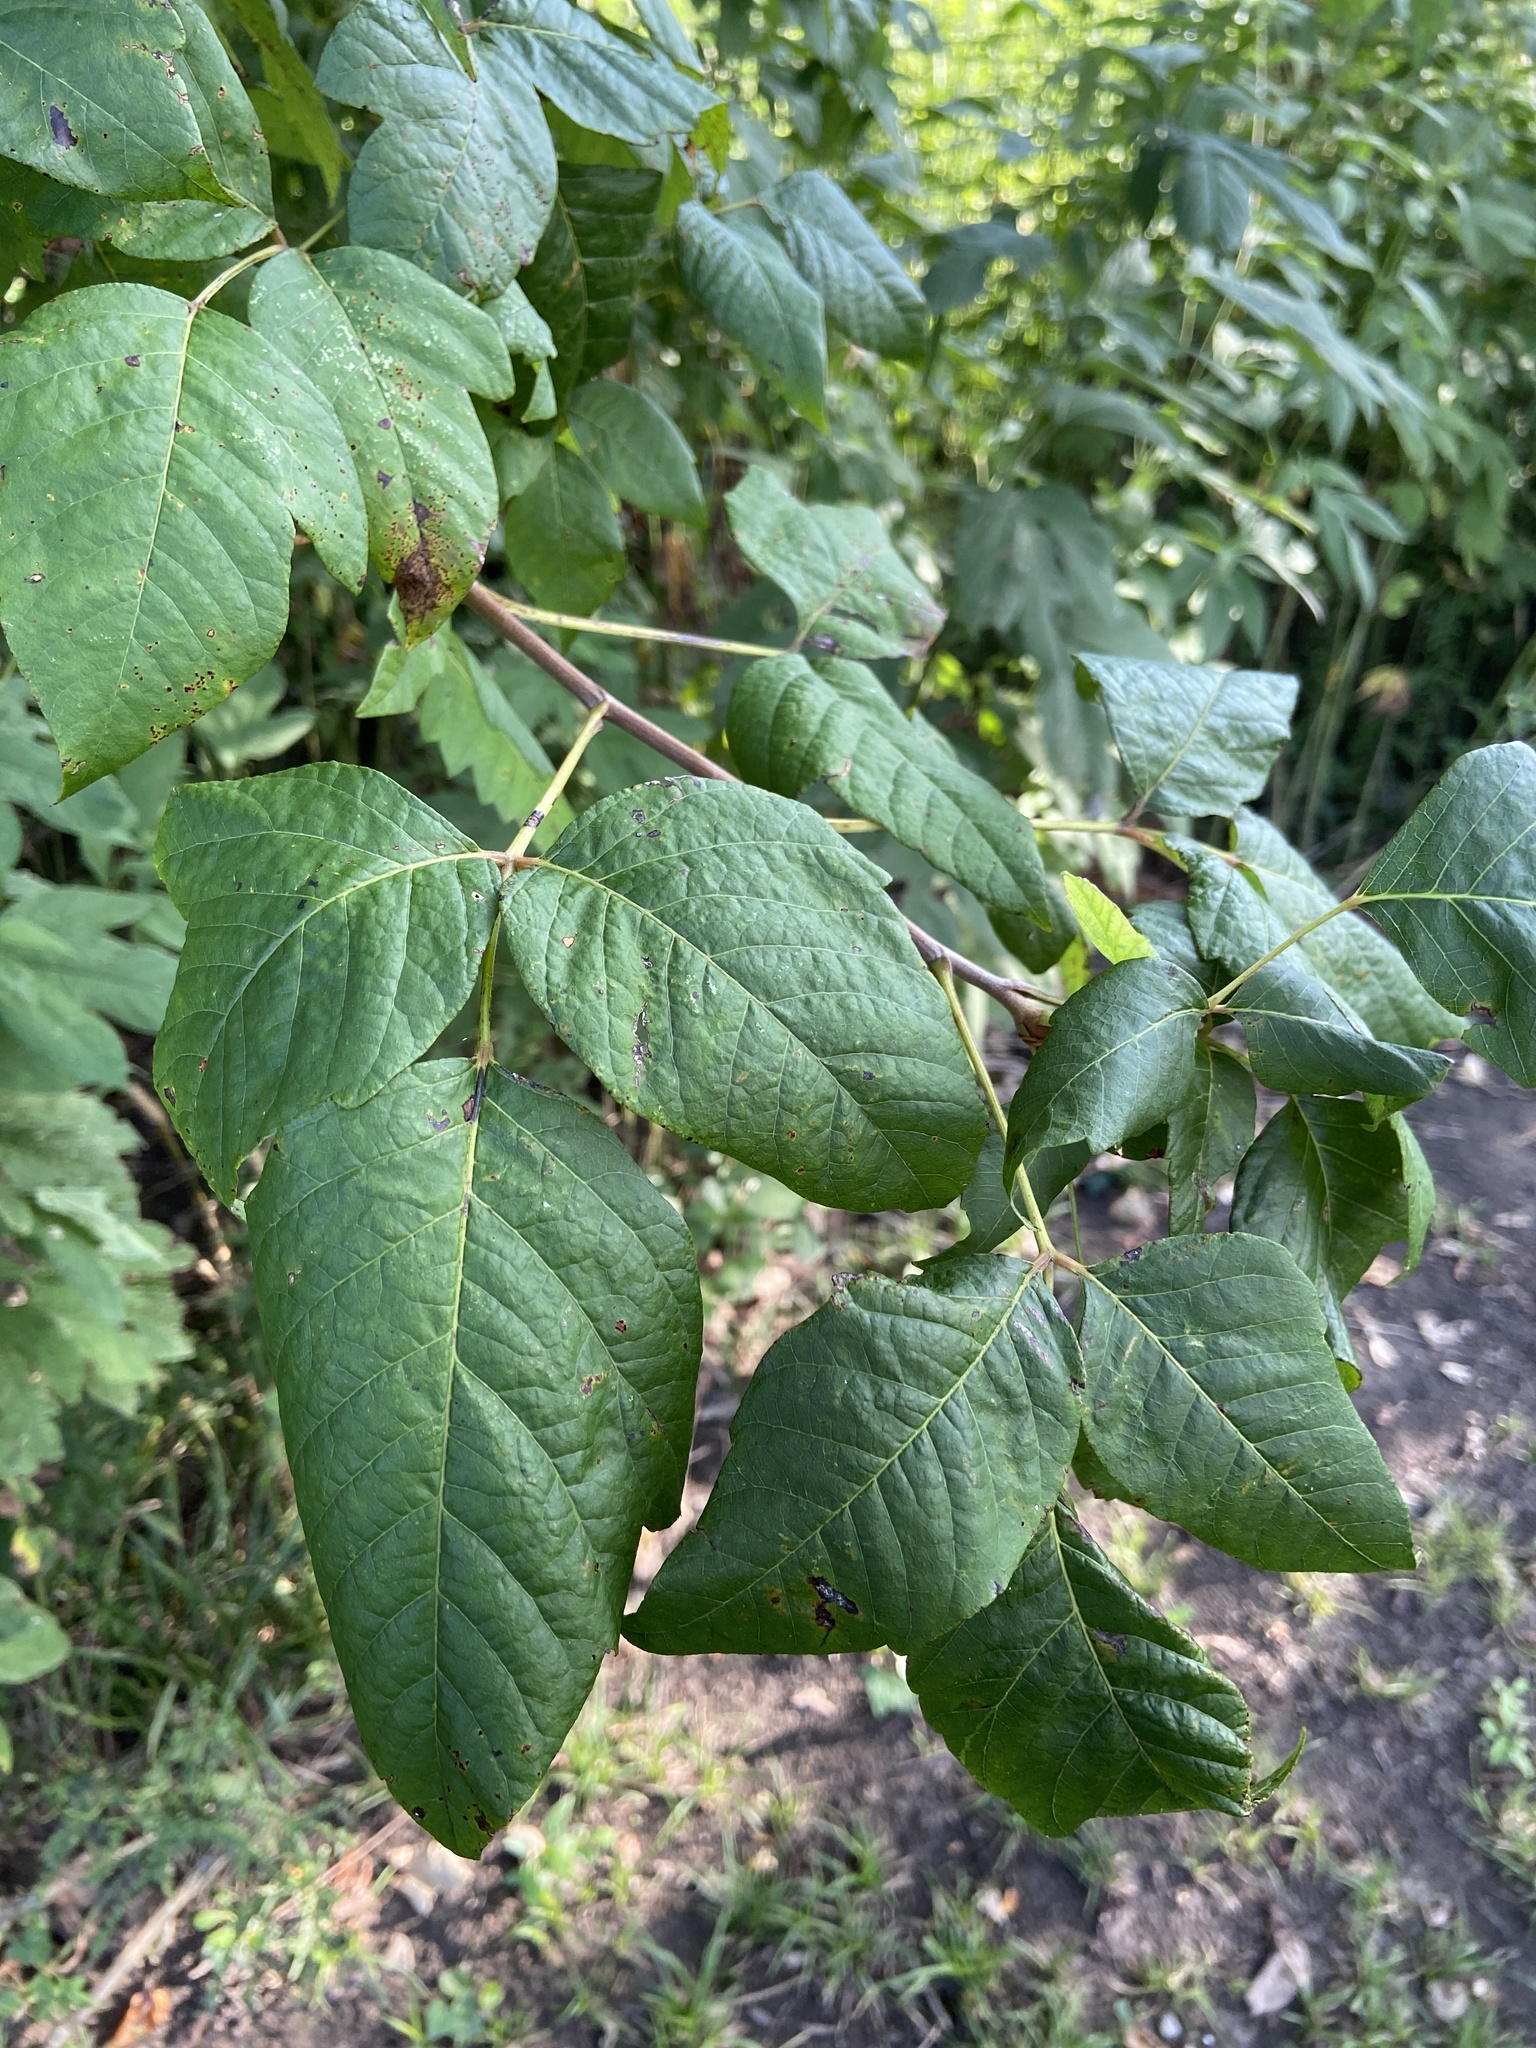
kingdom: Plantae
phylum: Tracheophyta
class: Magnoliopsida
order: Sapindales
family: Anacardiaceae
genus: Toxicodendron
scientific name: Toxicodendron radicans
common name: Poison ivy
